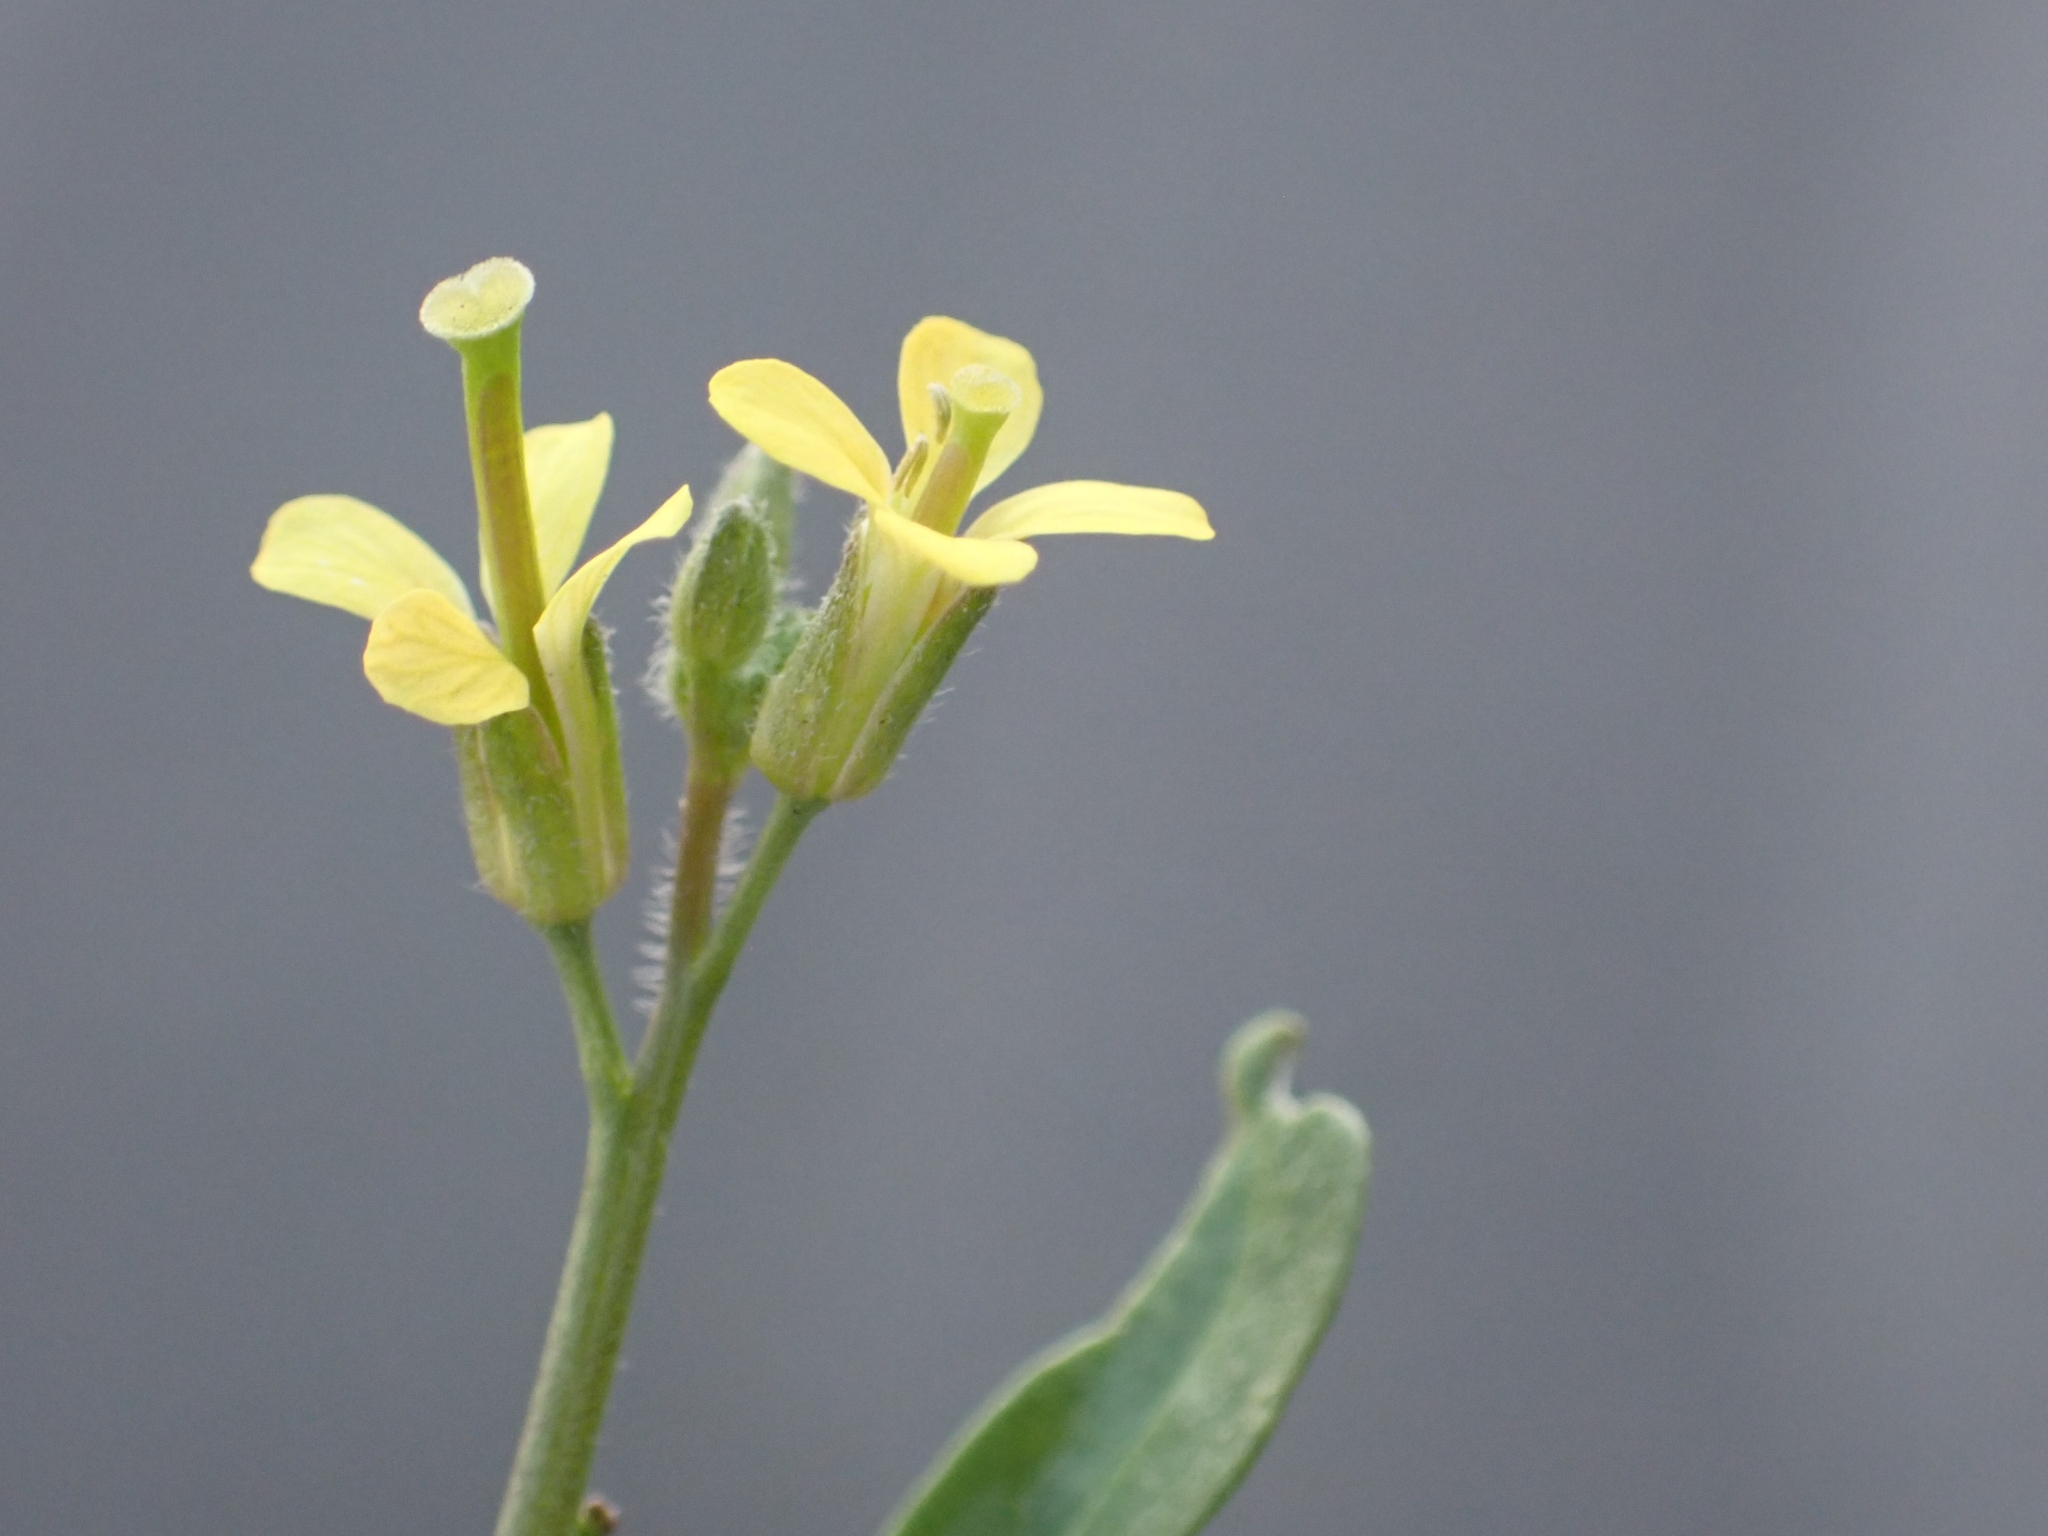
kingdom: Plantae
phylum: Tracheophyta
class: Magnoliopsida
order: Brassicales
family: Brassicaceae
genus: Sisymbrium
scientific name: Sisymbrium orientale
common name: Eastern rocket
